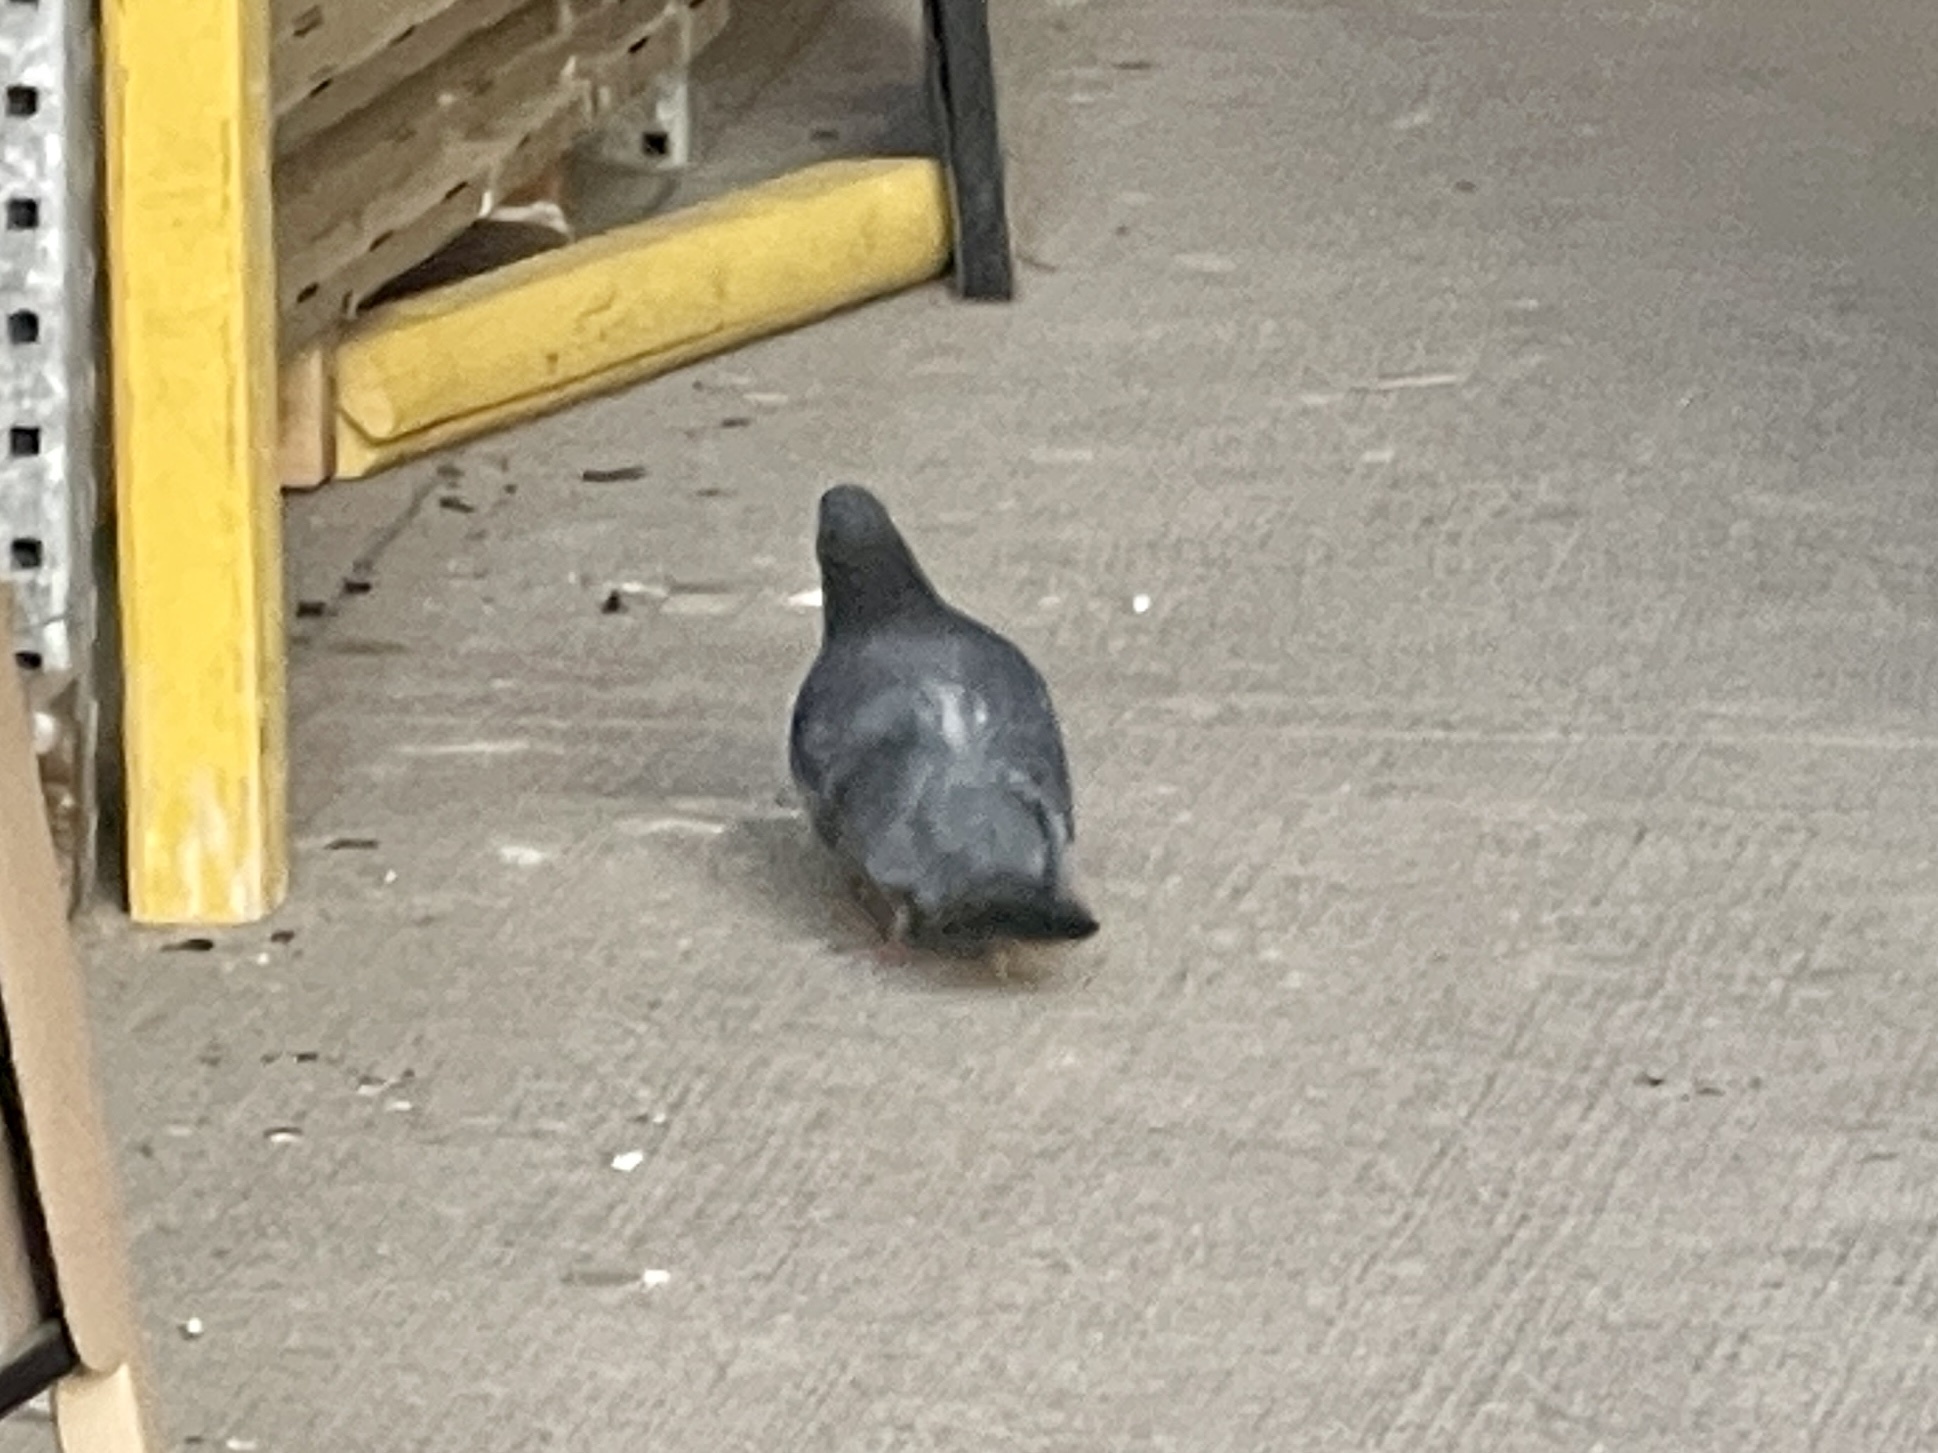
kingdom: Animalia
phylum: Chordata
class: Aves
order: Columbiformes
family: Columbidae
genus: Columba
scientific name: Columba livia
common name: Rock pigeon
